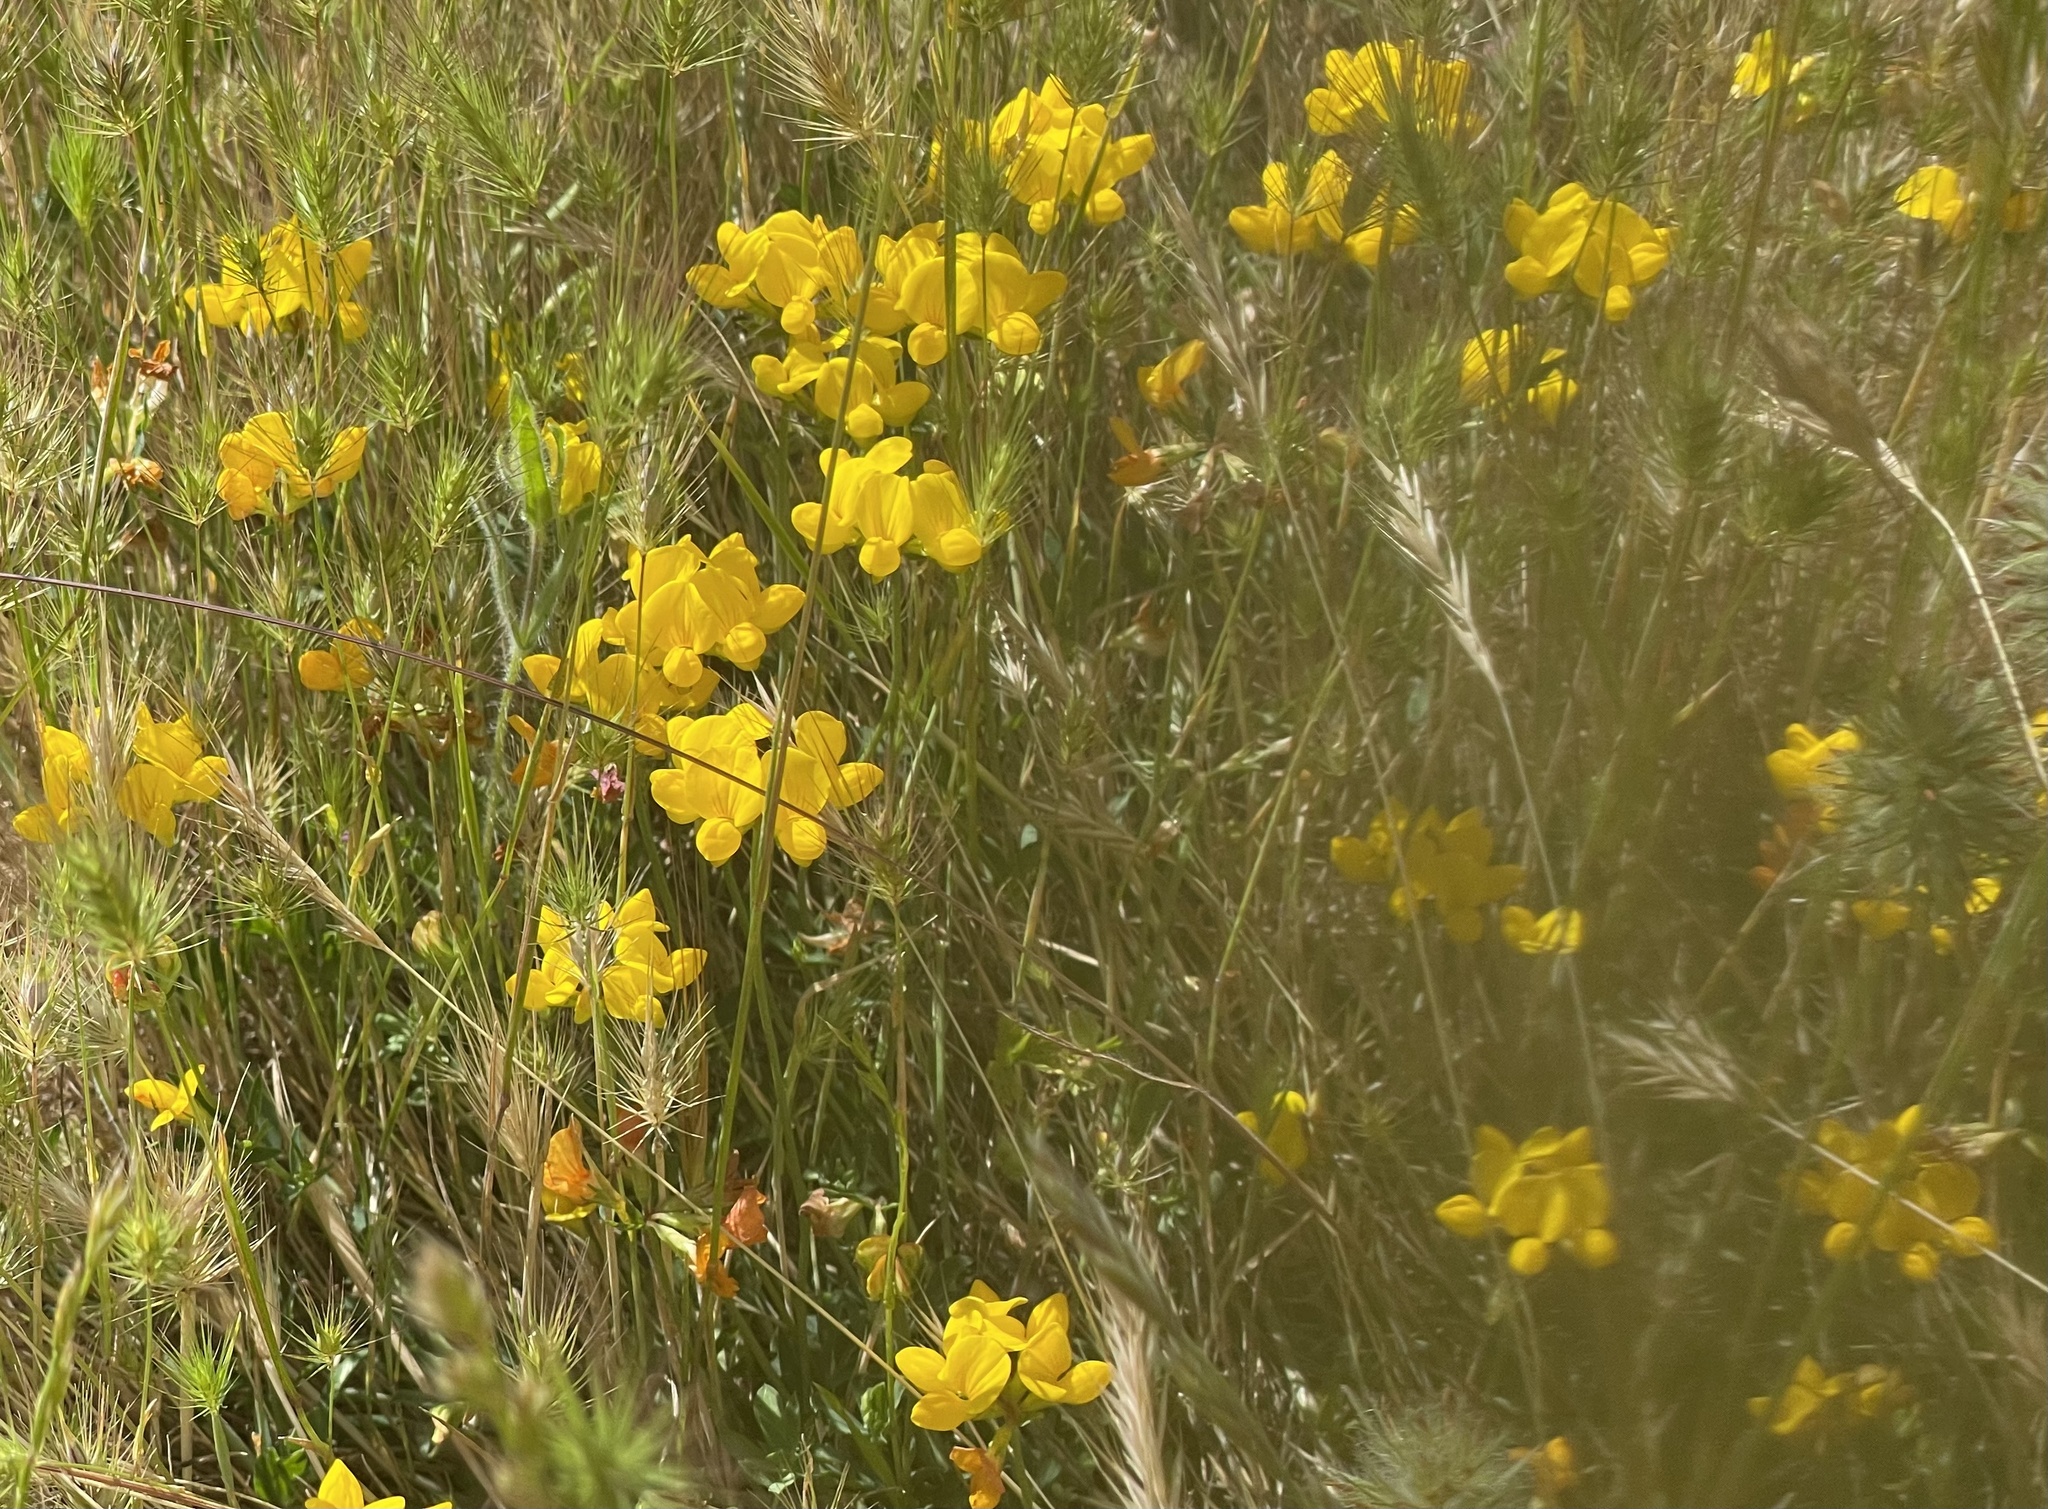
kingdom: Plantae
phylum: Tracheophyta
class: Magnoliopsida
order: Fabales
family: Fabaceae
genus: Lotus
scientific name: Lotus corniculatus
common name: Common bird's-foot-trefoil
